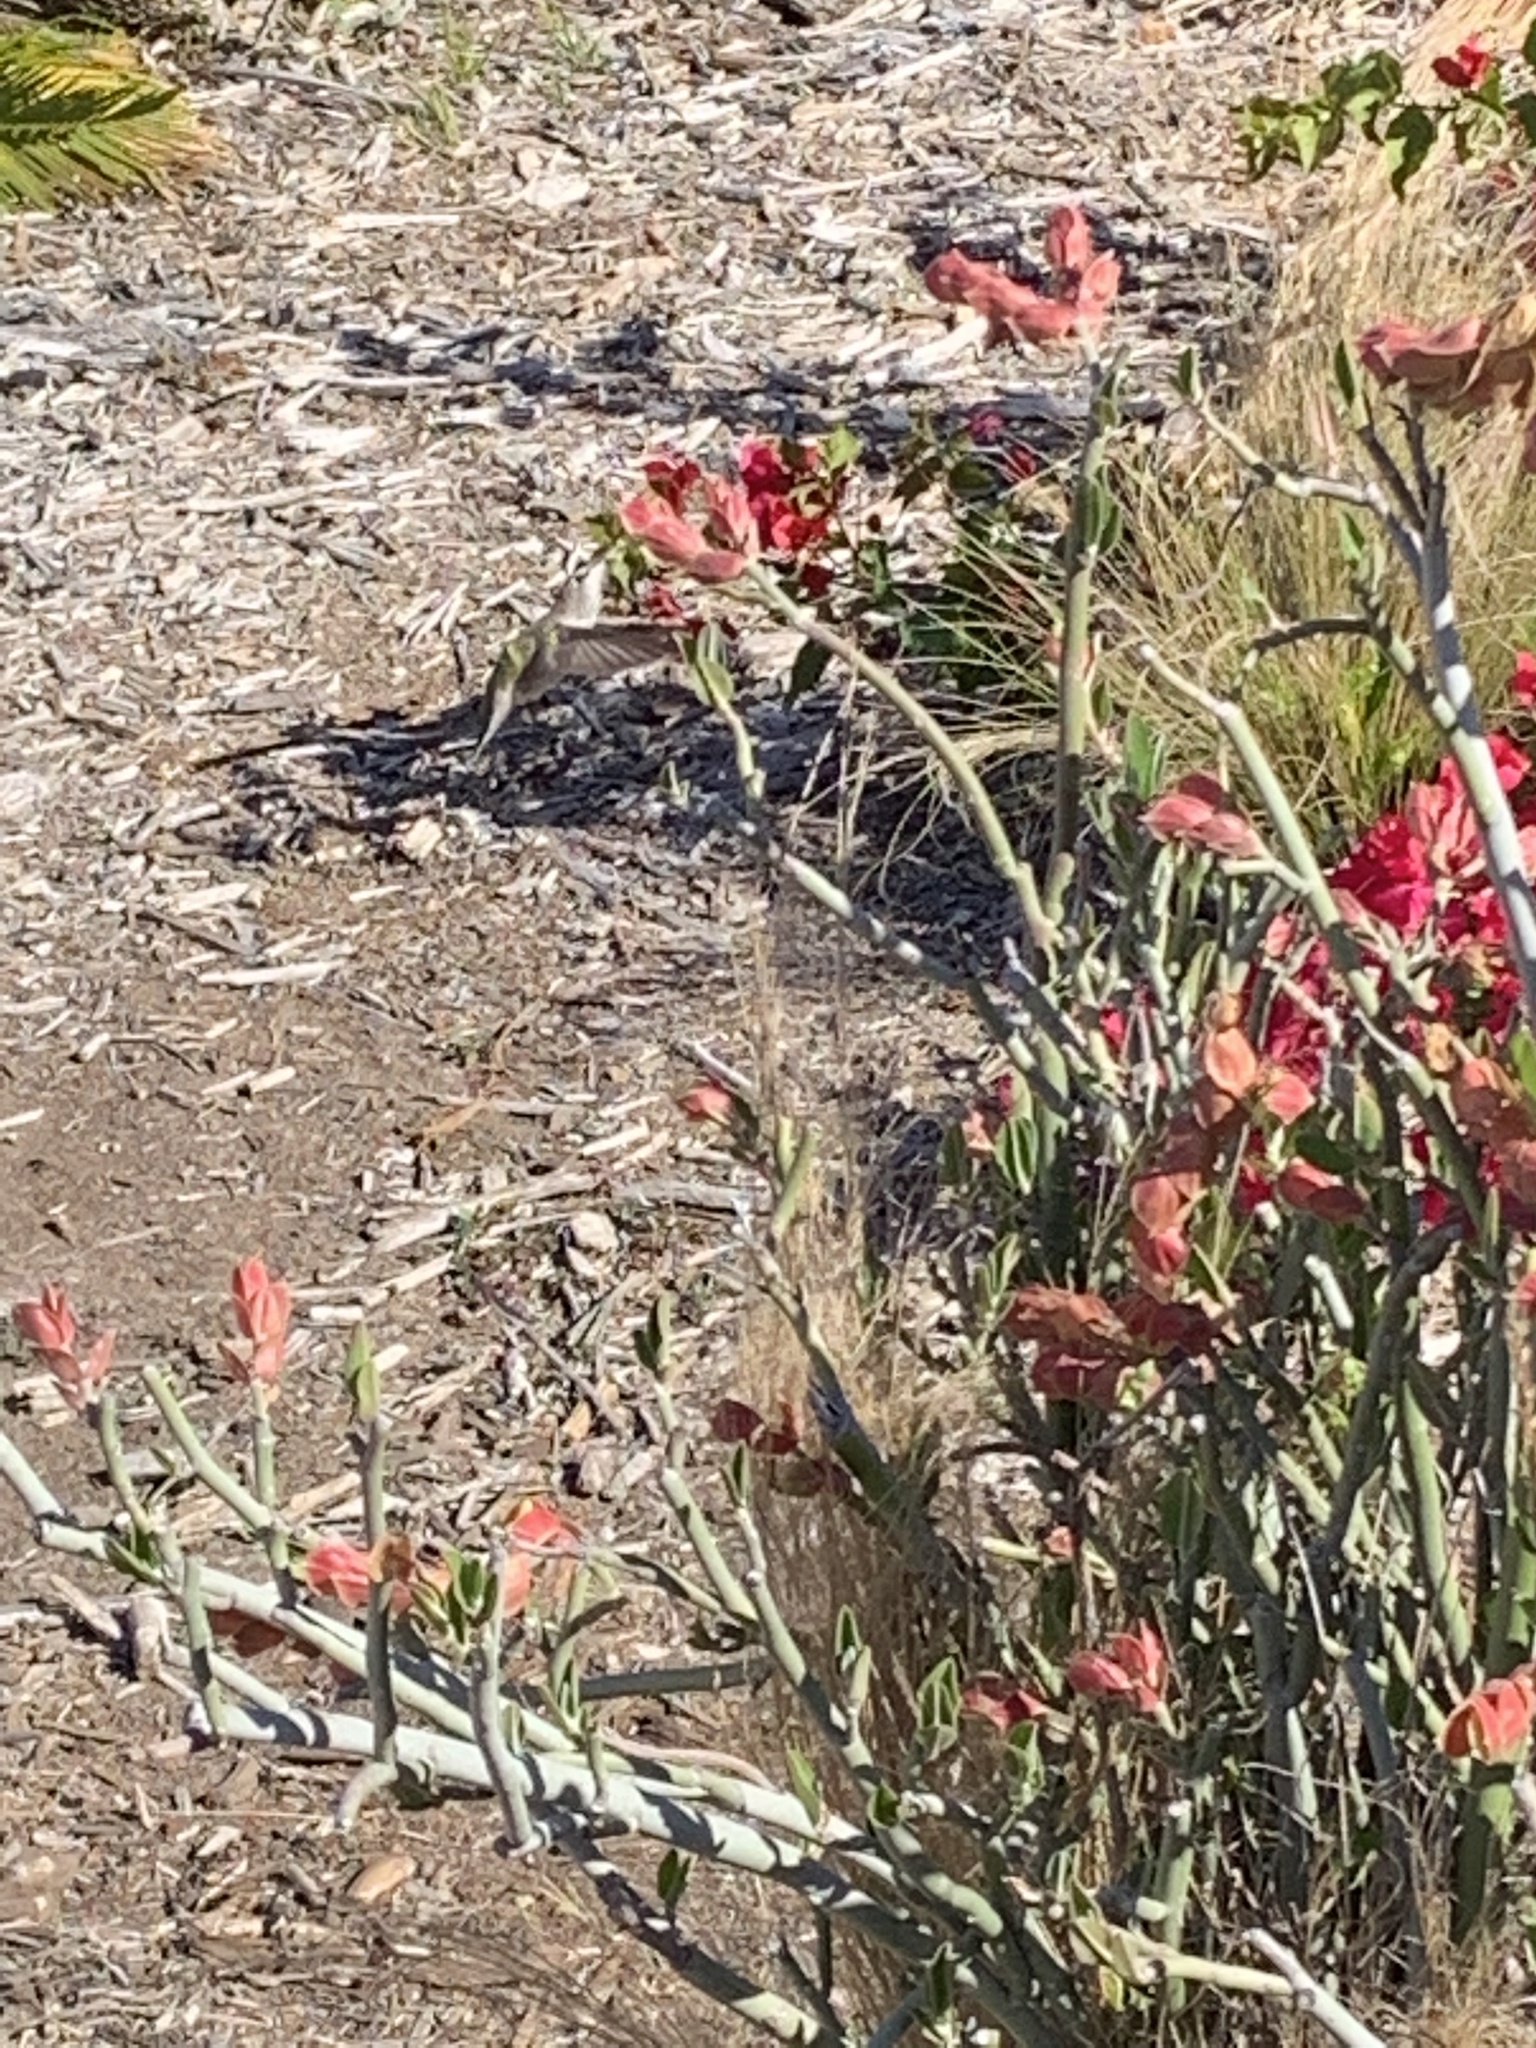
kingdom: Animalia
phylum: Chordata
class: Aves
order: Apodiformes
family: Trochilidae
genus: Calypte
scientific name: Calypte anna
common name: Anna's hummingbird
